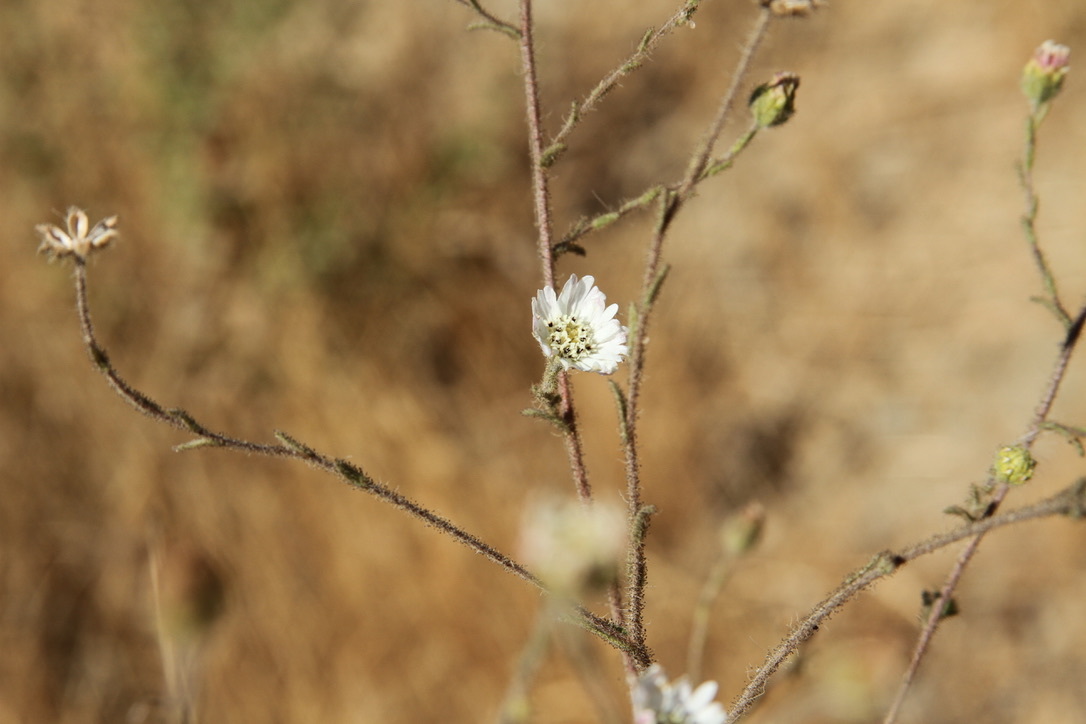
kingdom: Plantae
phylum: Tracheophyta
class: Magnoliopsida
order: Asterales
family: Asteraceae
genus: Hemizonia
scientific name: Hemizonia congesta
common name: Hayfield tarweed
